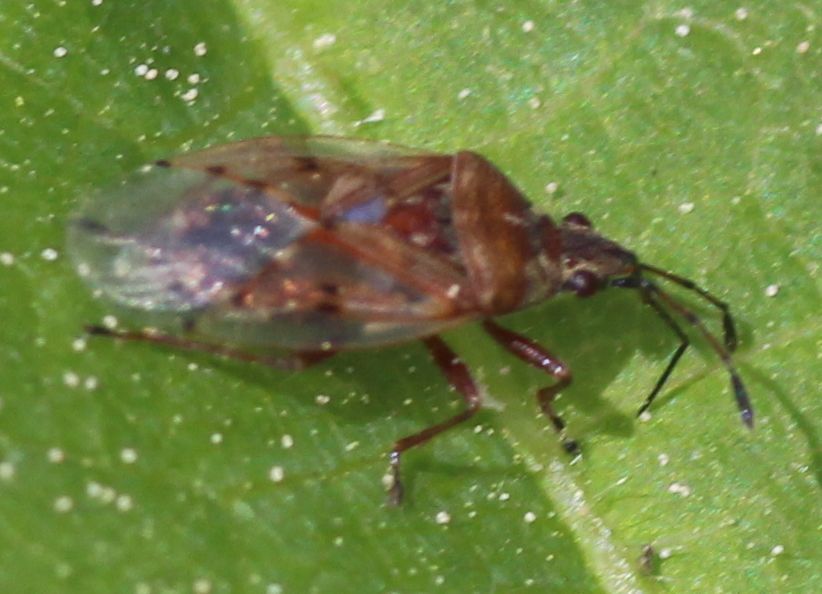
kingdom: Animalia
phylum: Arthropoda
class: Insecta
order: Hemiptera
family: Lygaeidae
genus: Kleidocerys
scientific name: Kleidocerys resedae
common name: Birch catkin bug
